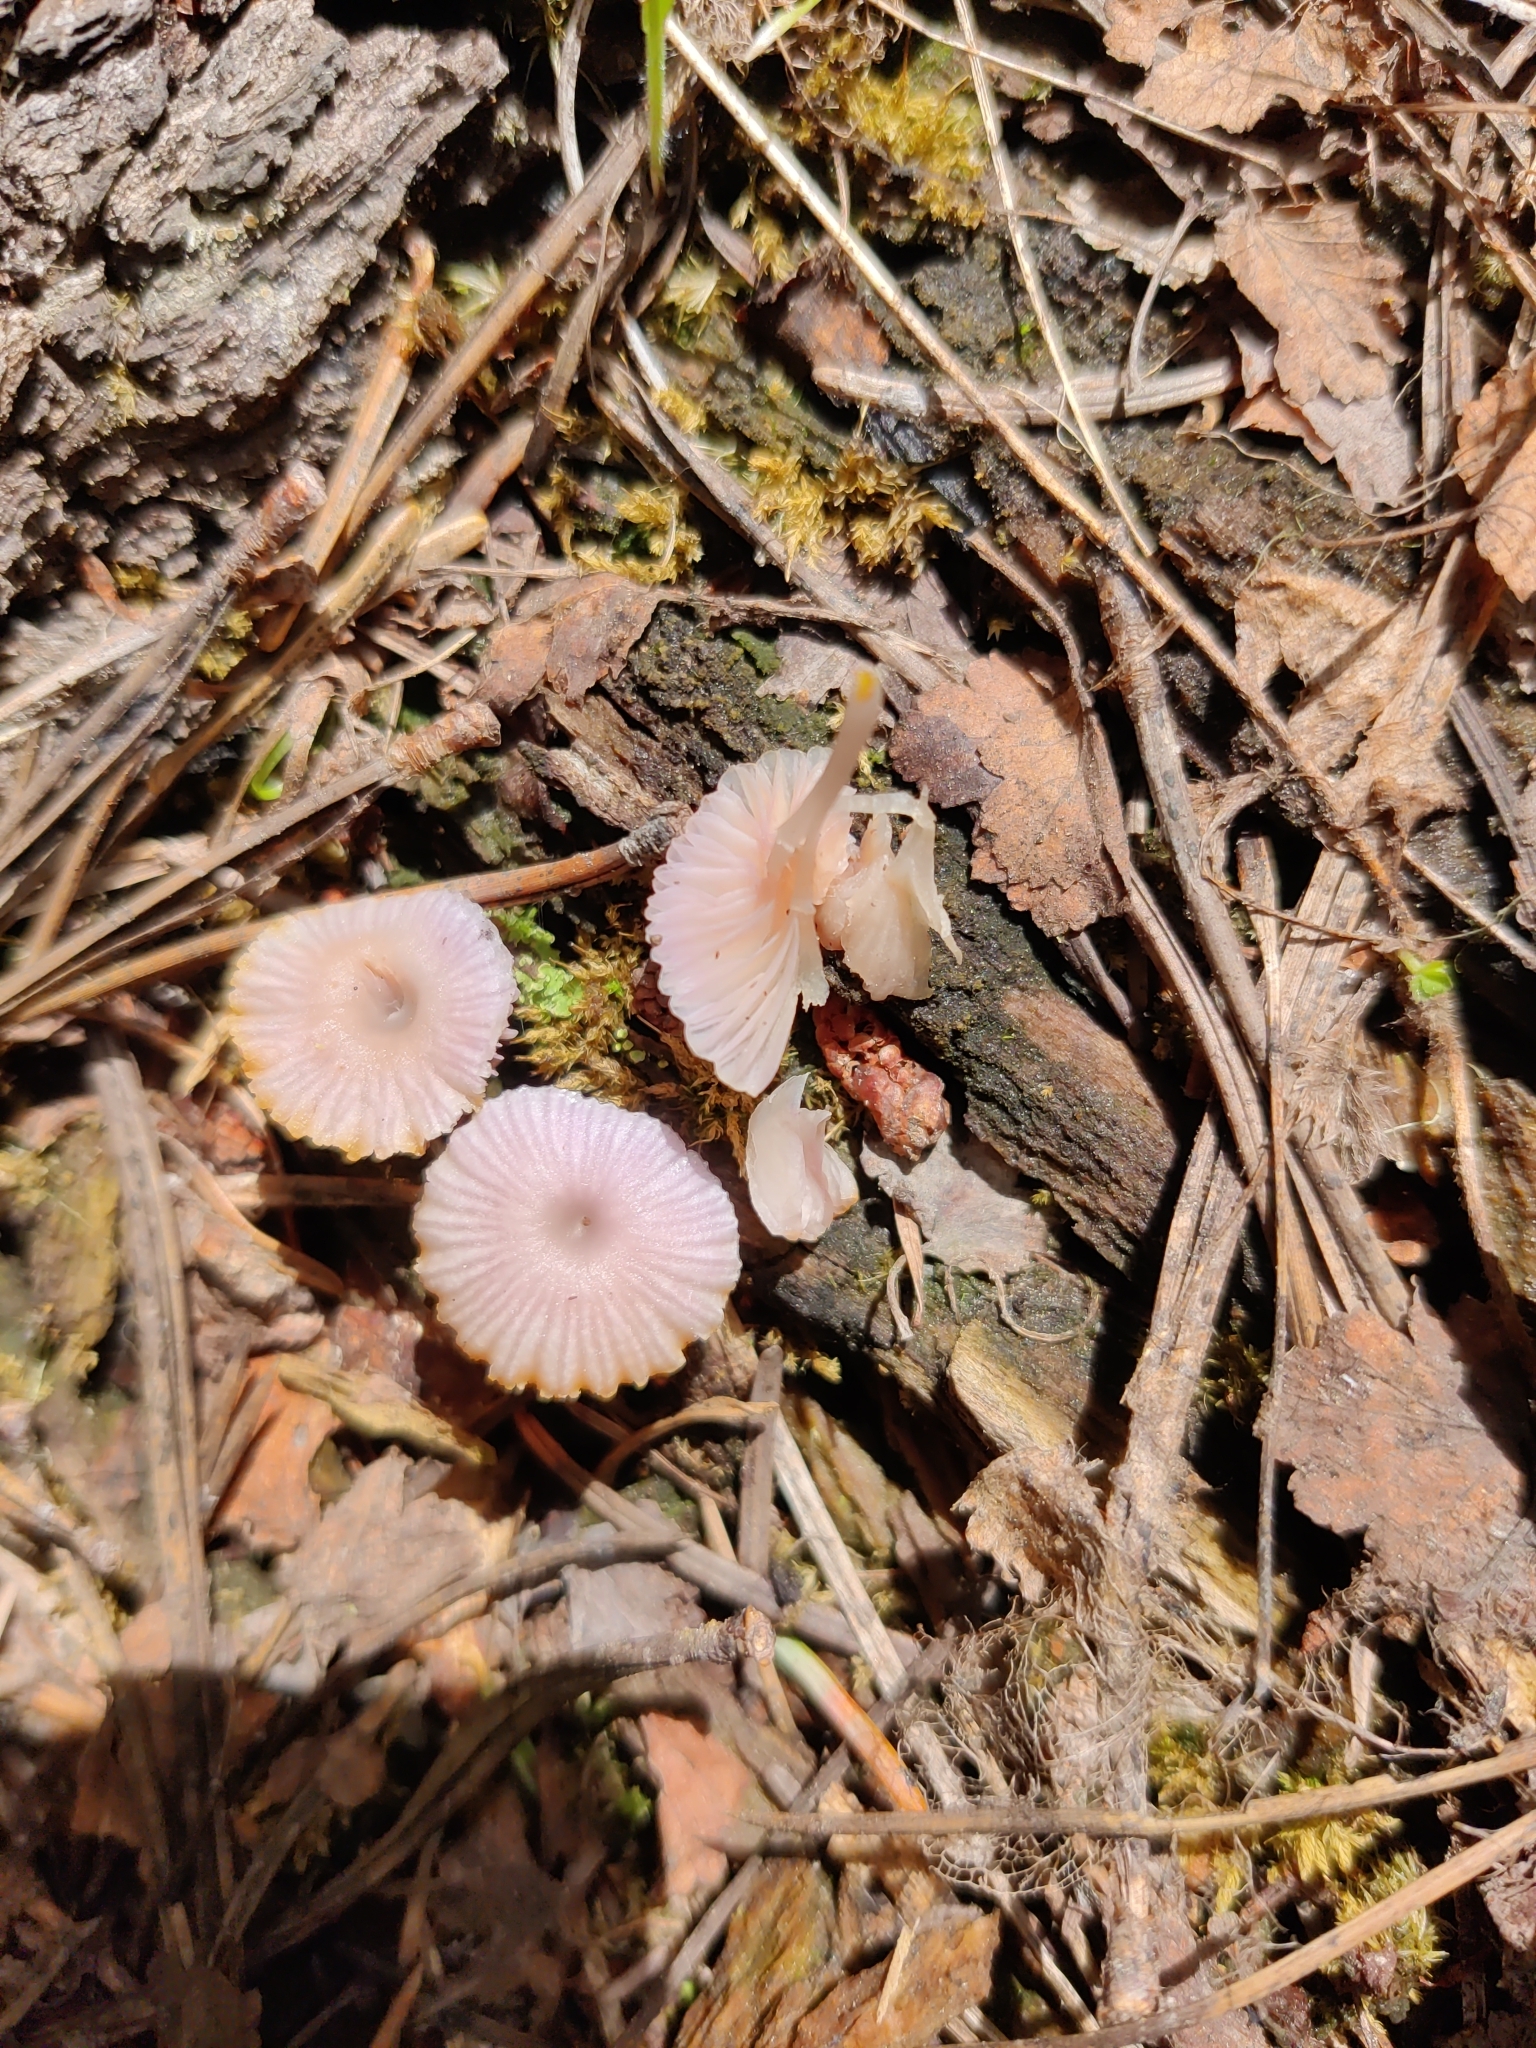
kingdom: Fungi
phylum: Basidiomycota
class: Agaricomycetes
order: Agaricales
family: Hygrophoraceae
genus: Chromosera
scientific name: Chromosera cyanophylla
